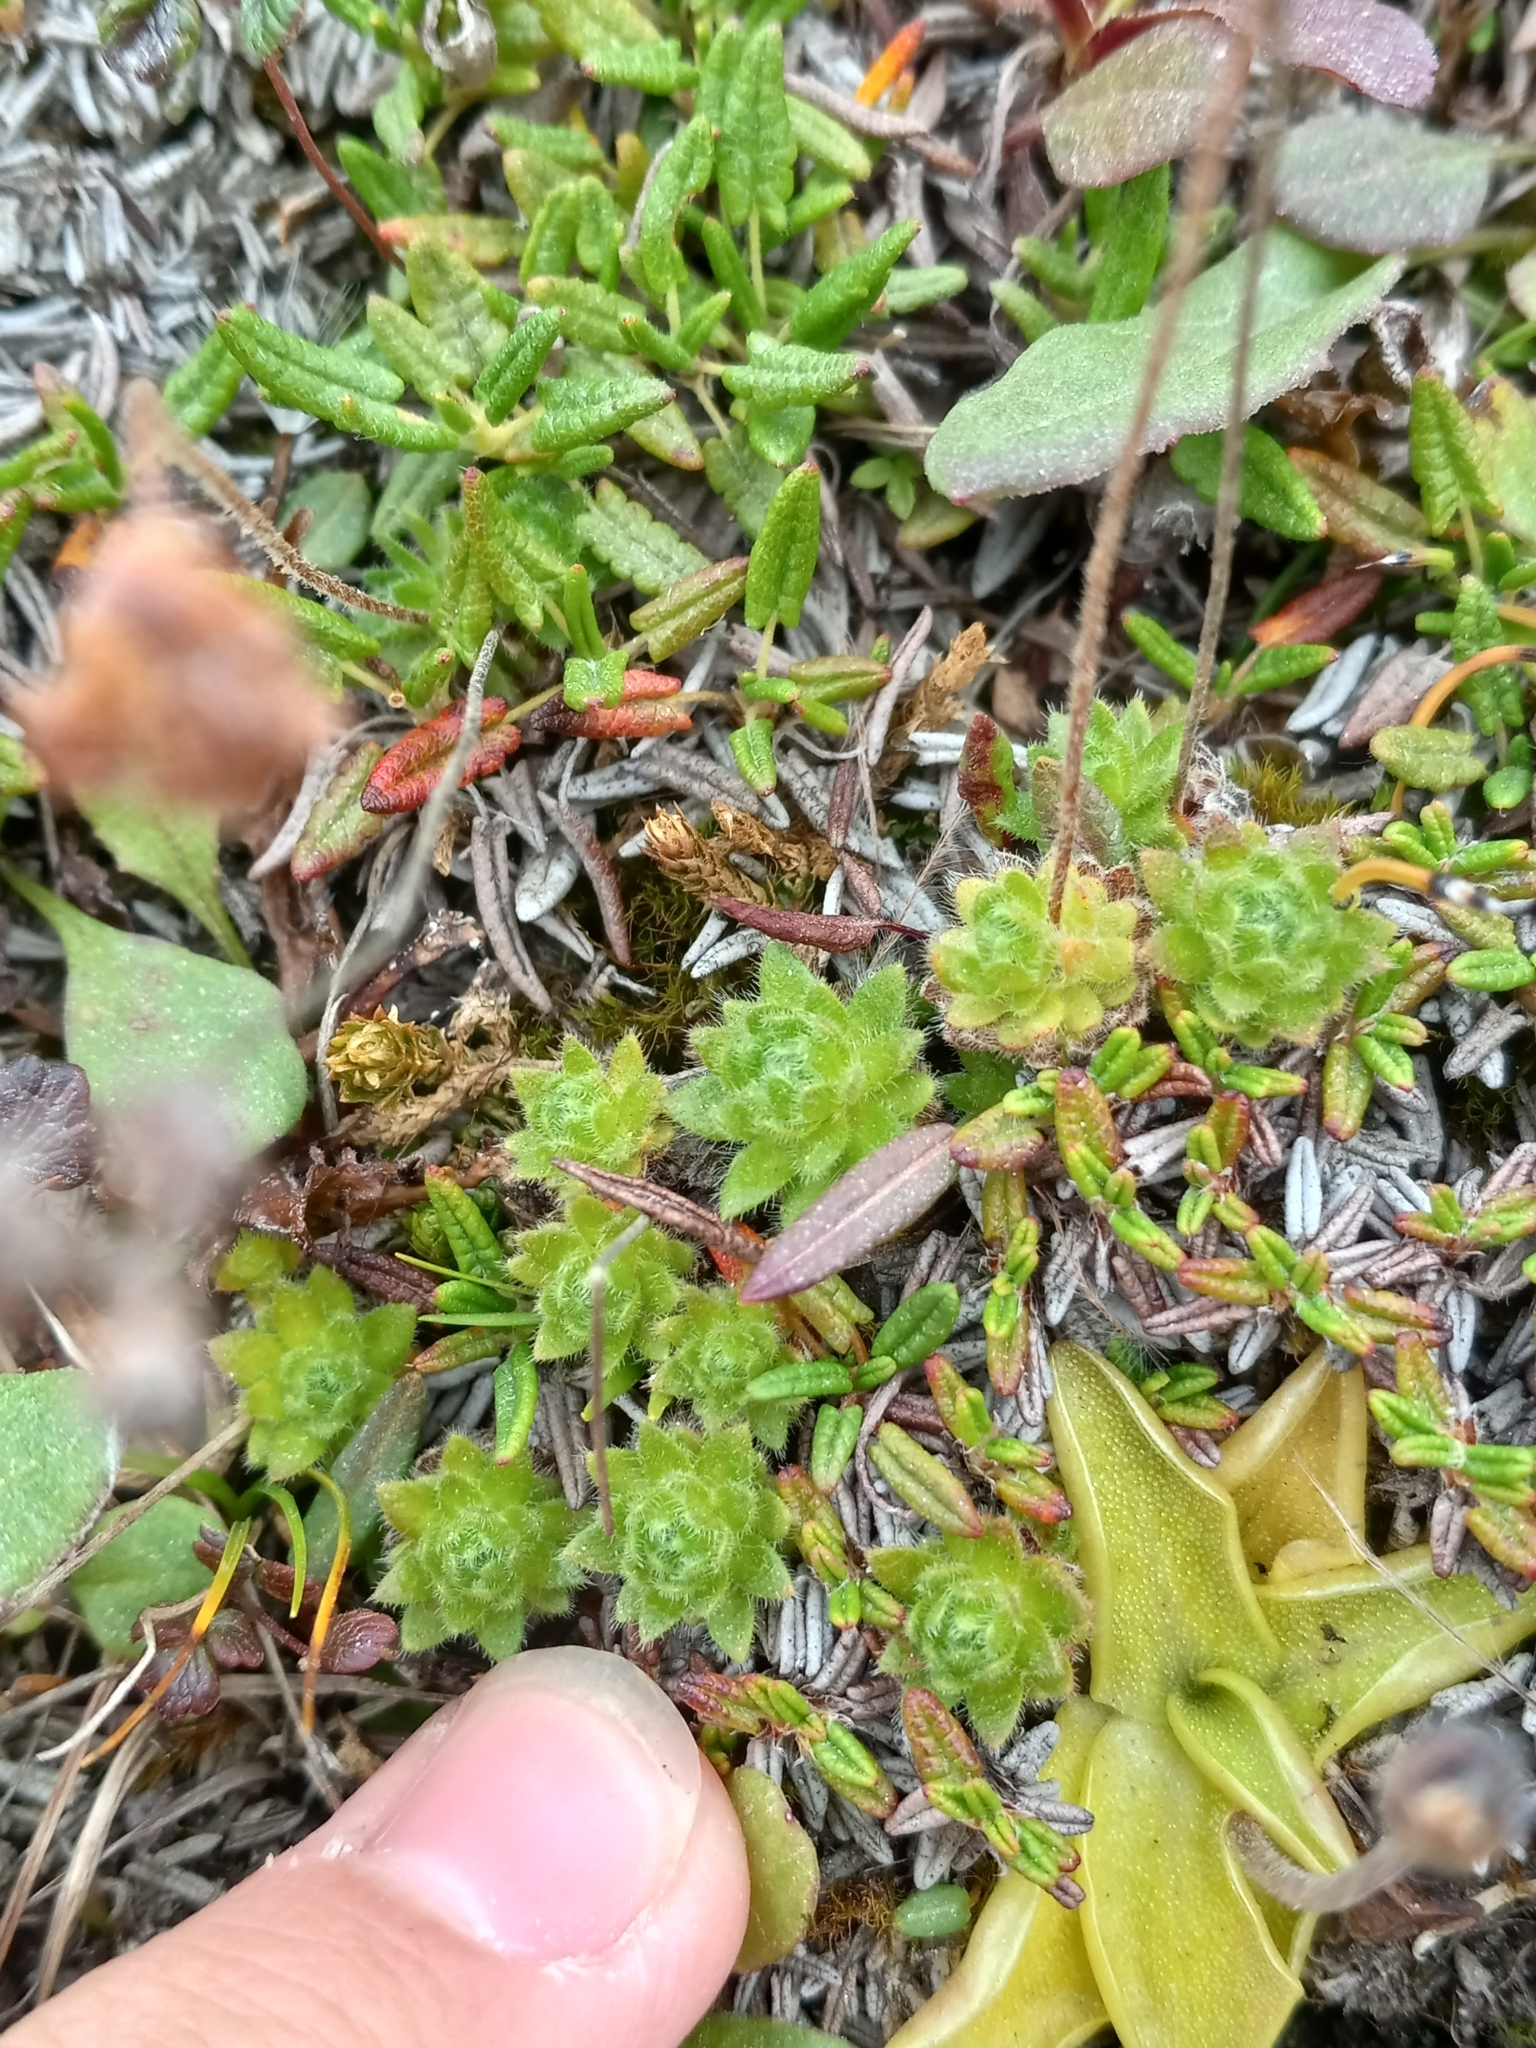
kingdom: Plantae
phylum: Tracheophyta
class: Magnoliopsida
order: Ericales
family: Primulaceae
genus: Androsace
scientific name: Androsace chamaejasme
